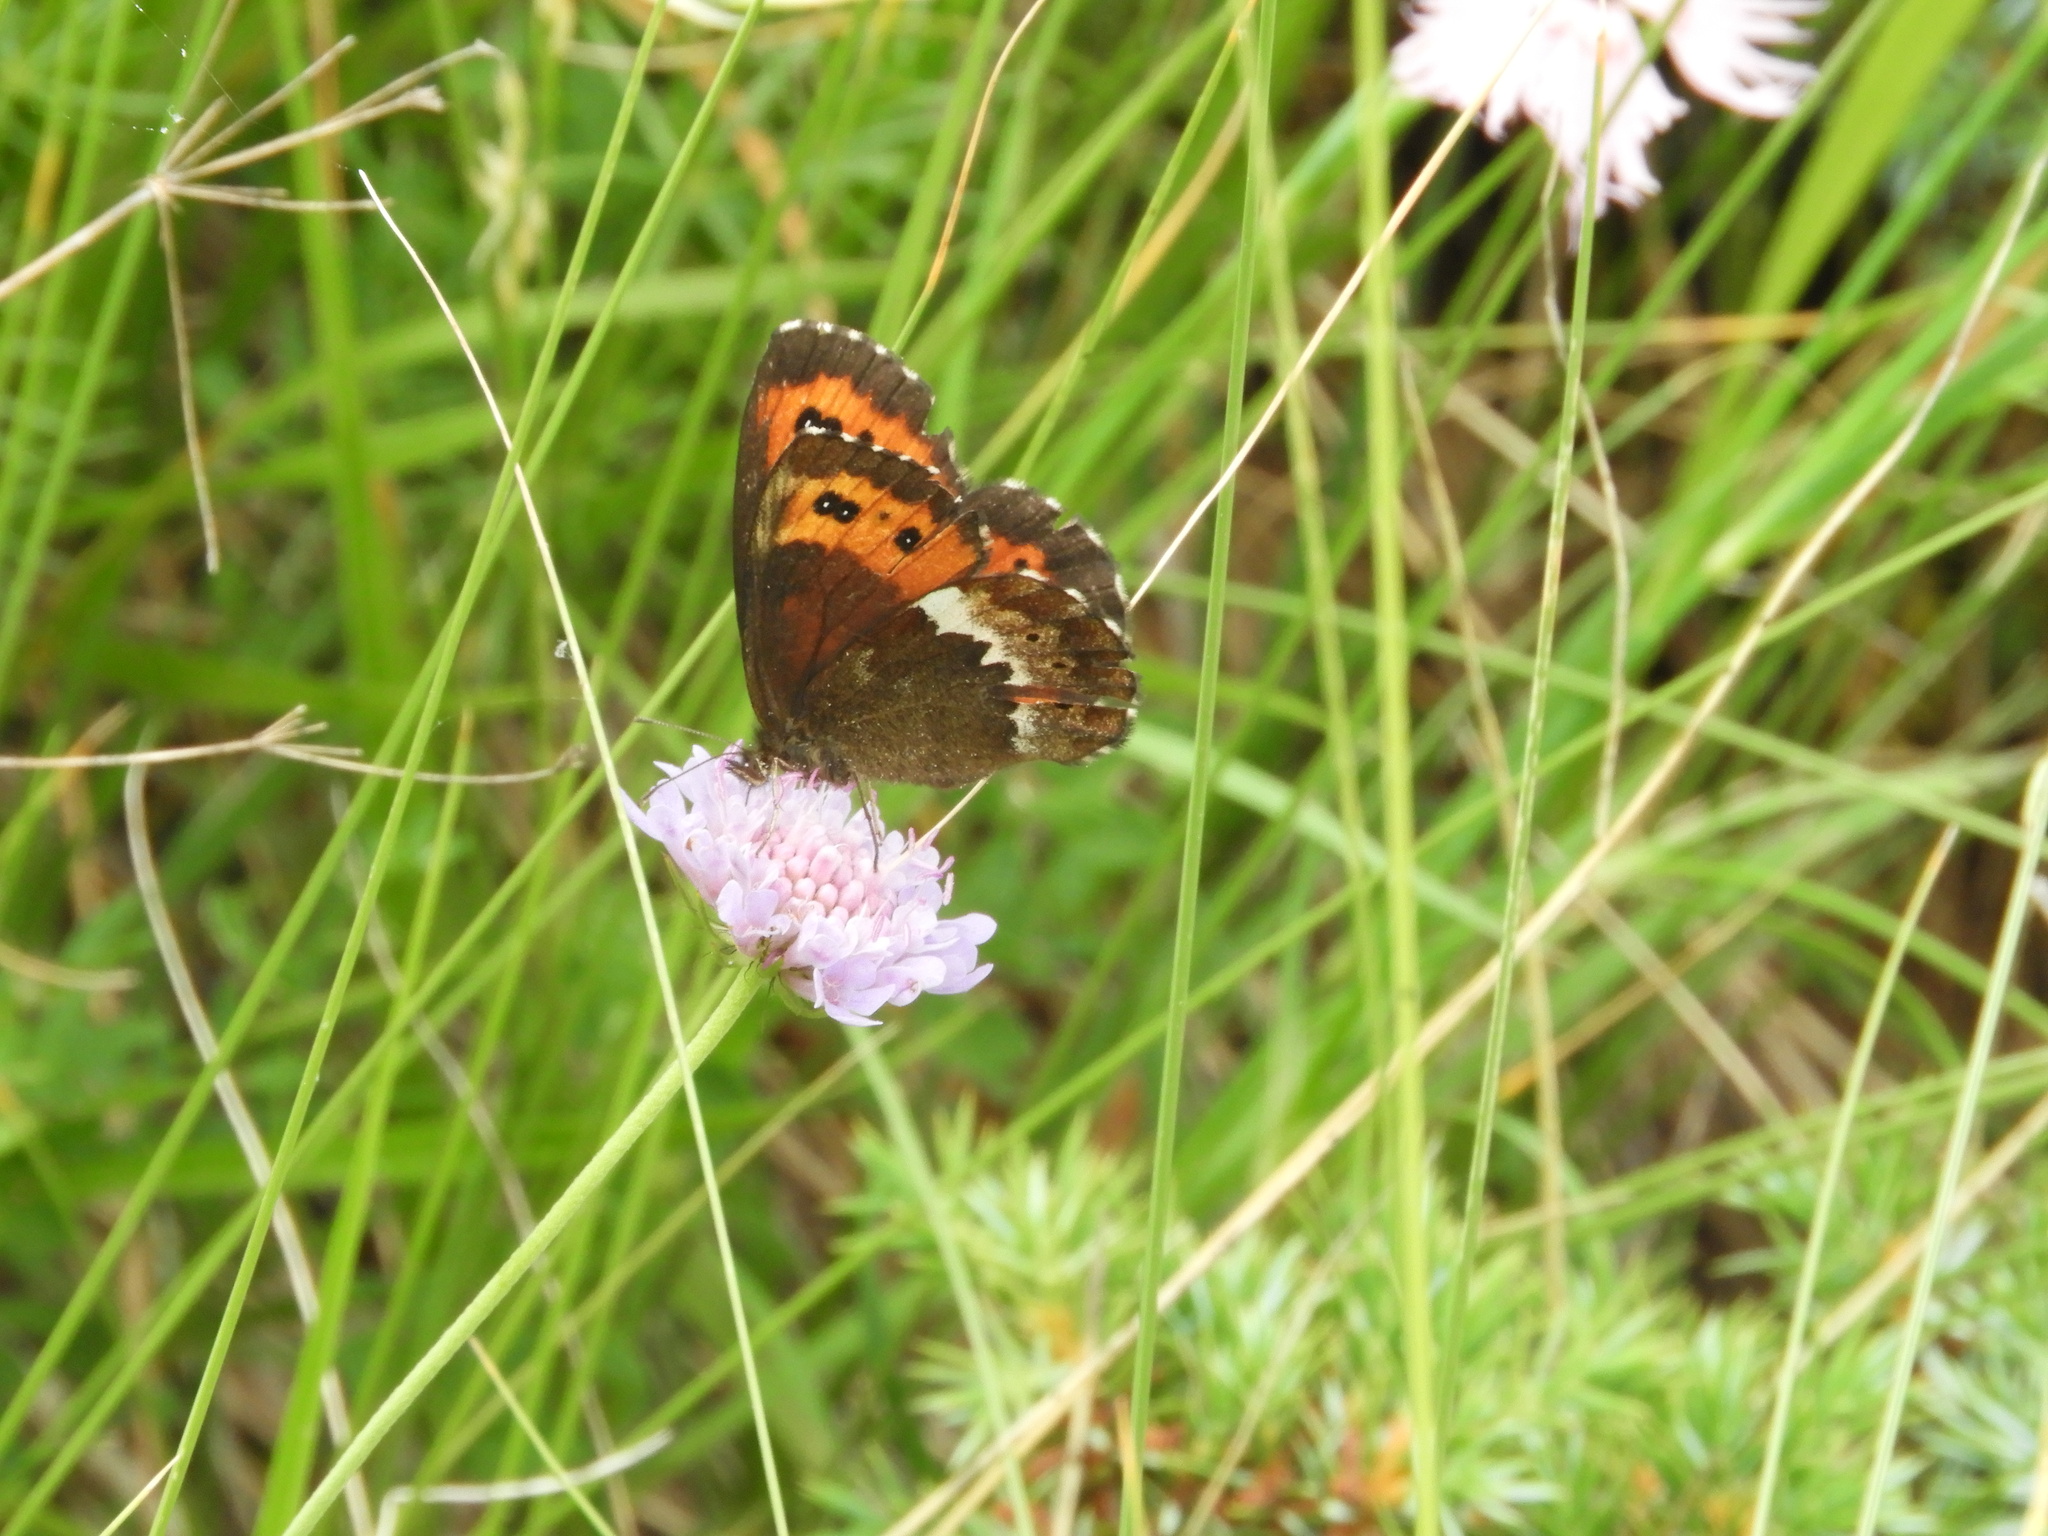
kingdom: Animalia
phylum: Arthropoda
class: Insecta
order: Lepidoptera
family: Nymphalidae
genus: Erebia
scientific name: Erebia ligea
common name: Arran brown
